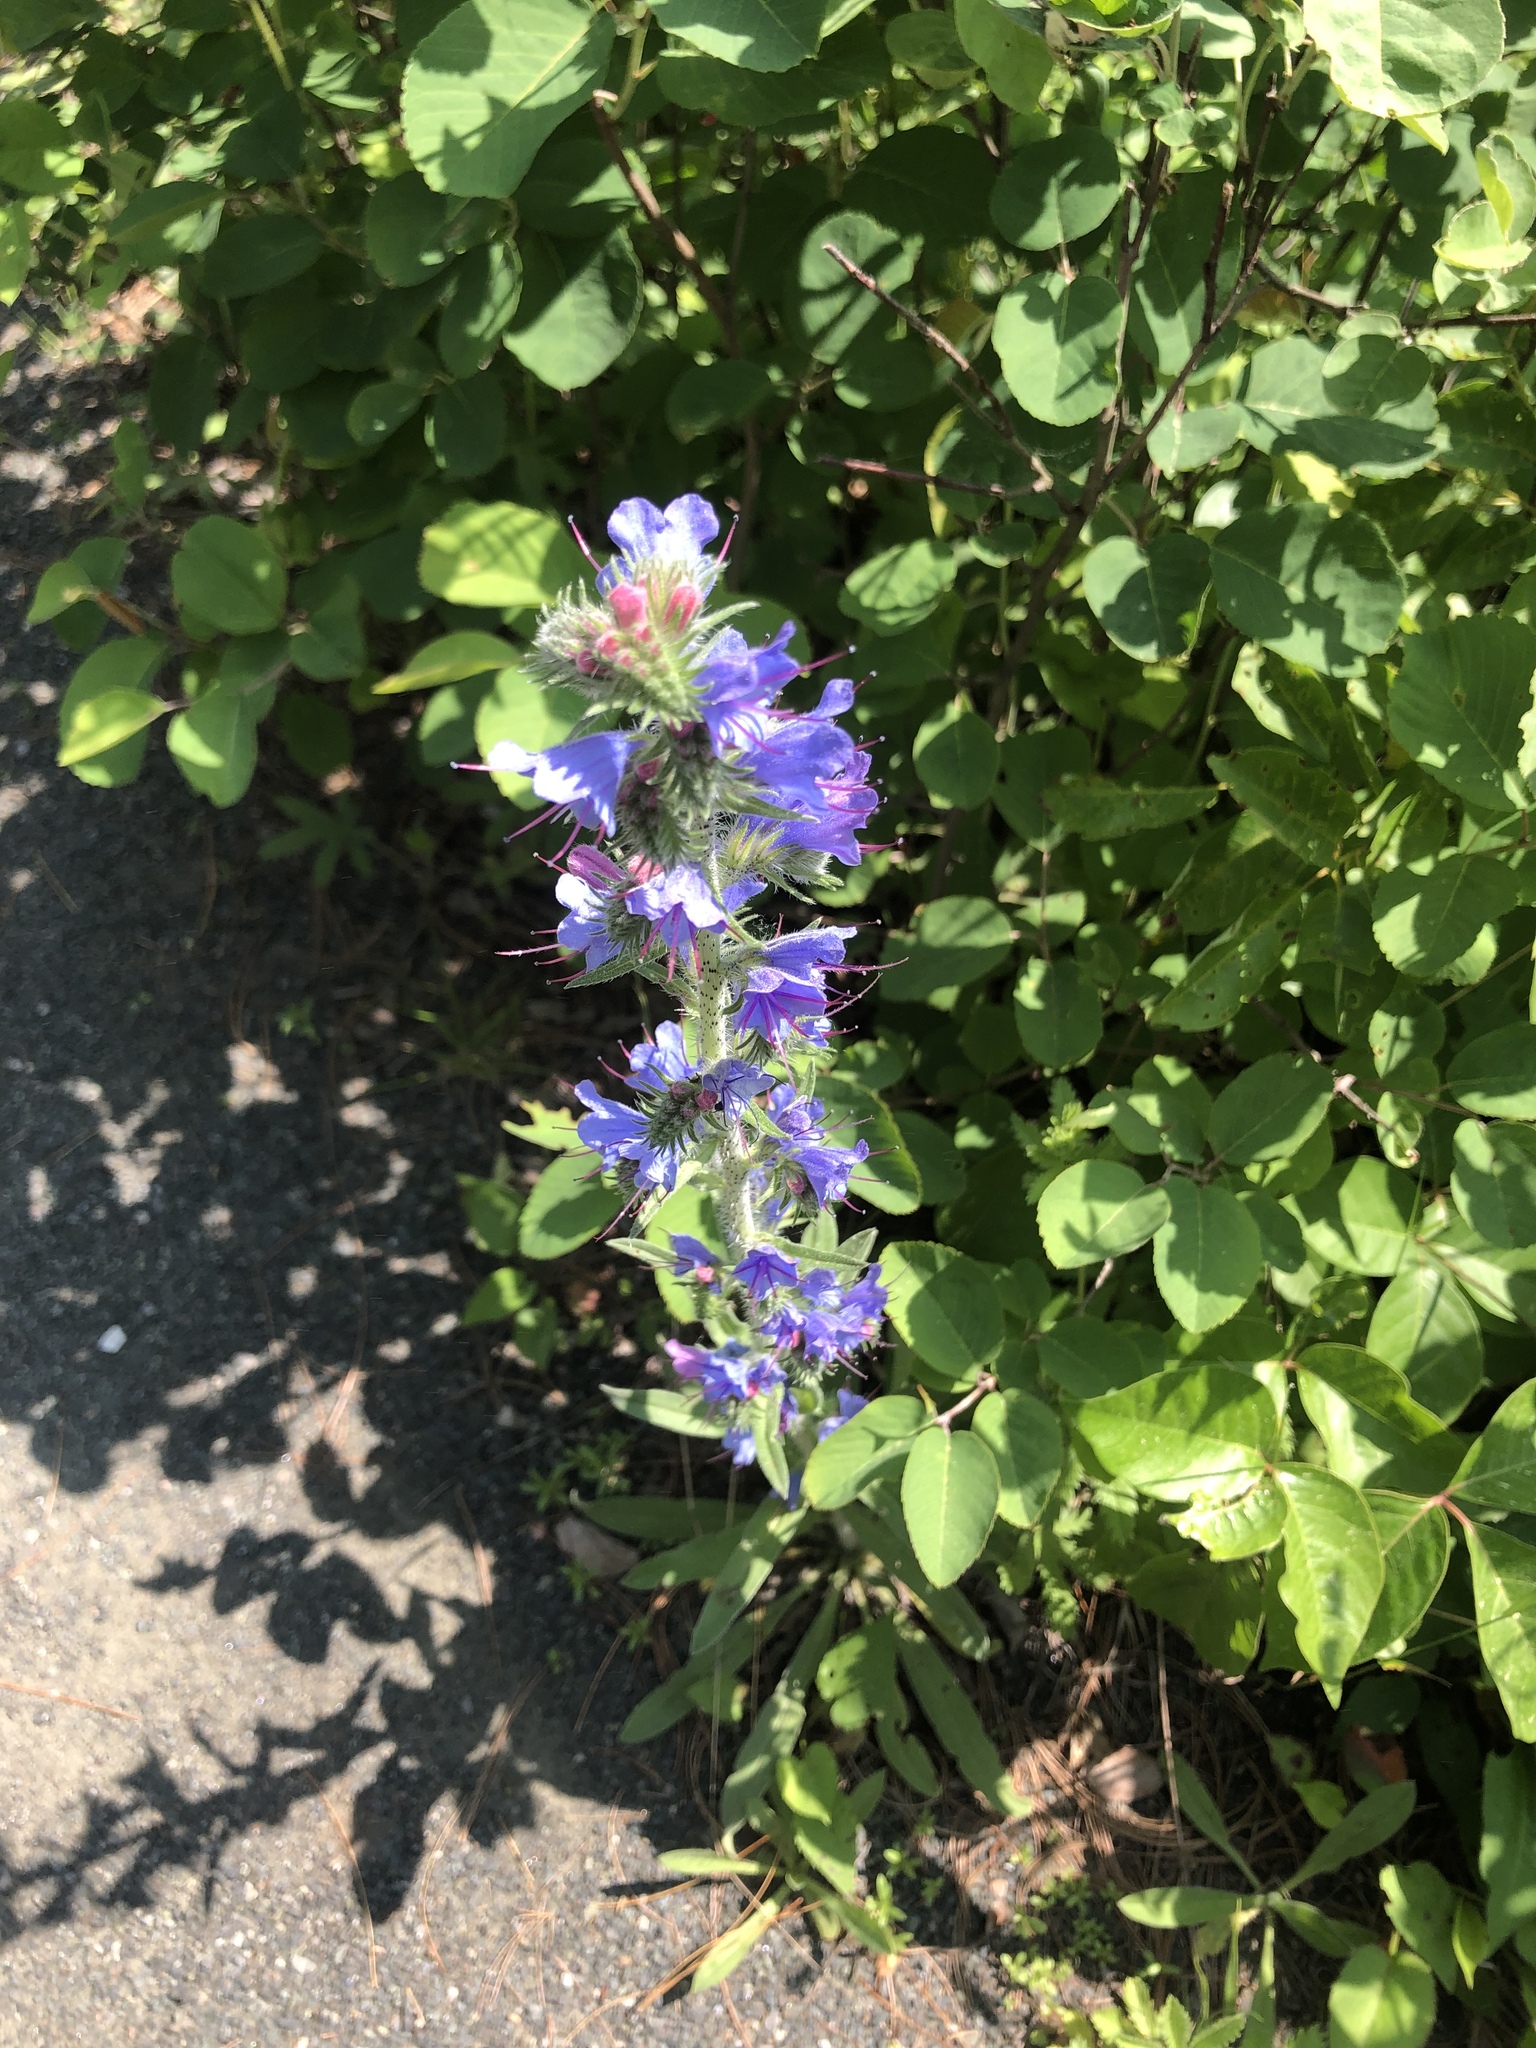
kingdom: Plantae
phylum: Tracheophyta
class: Magnoliopsida
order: Boraginales
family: Boraginaceae
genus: Echium
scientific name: Echium vulgare
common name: Common viper's bugloss
